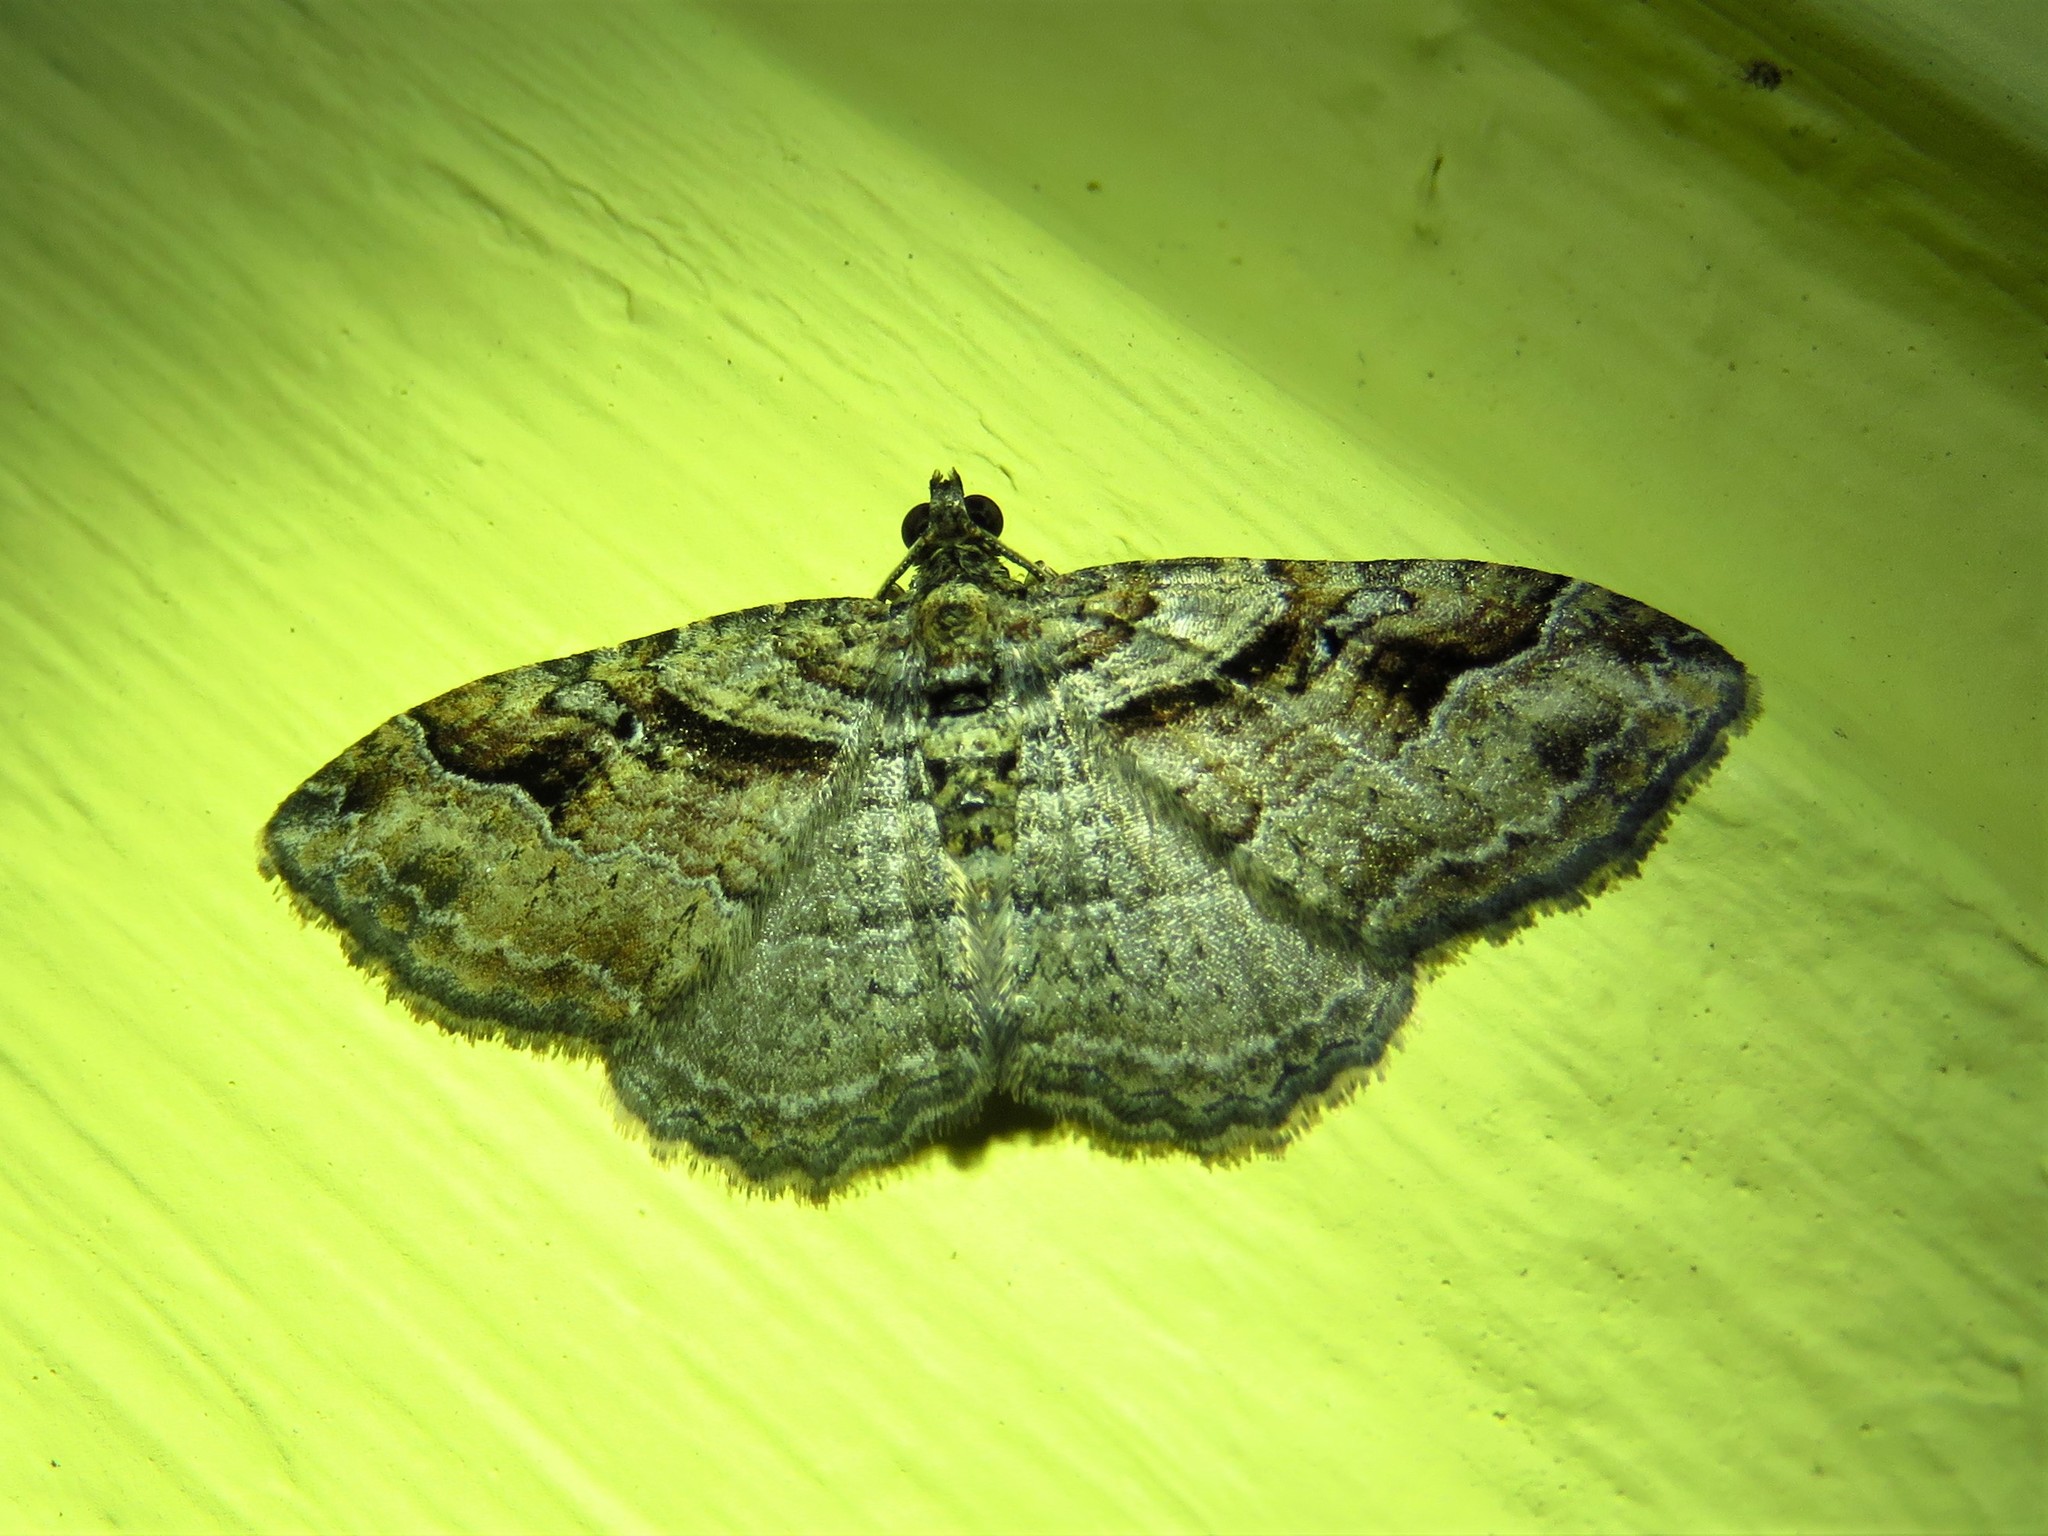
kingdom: Animalia
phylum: Arthropoda
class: Insecta
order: Lepidoptera
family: Geometridae
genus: Costaconvexa
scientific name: Costaconvexa centrostrigaria
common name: Bent-line carpet
